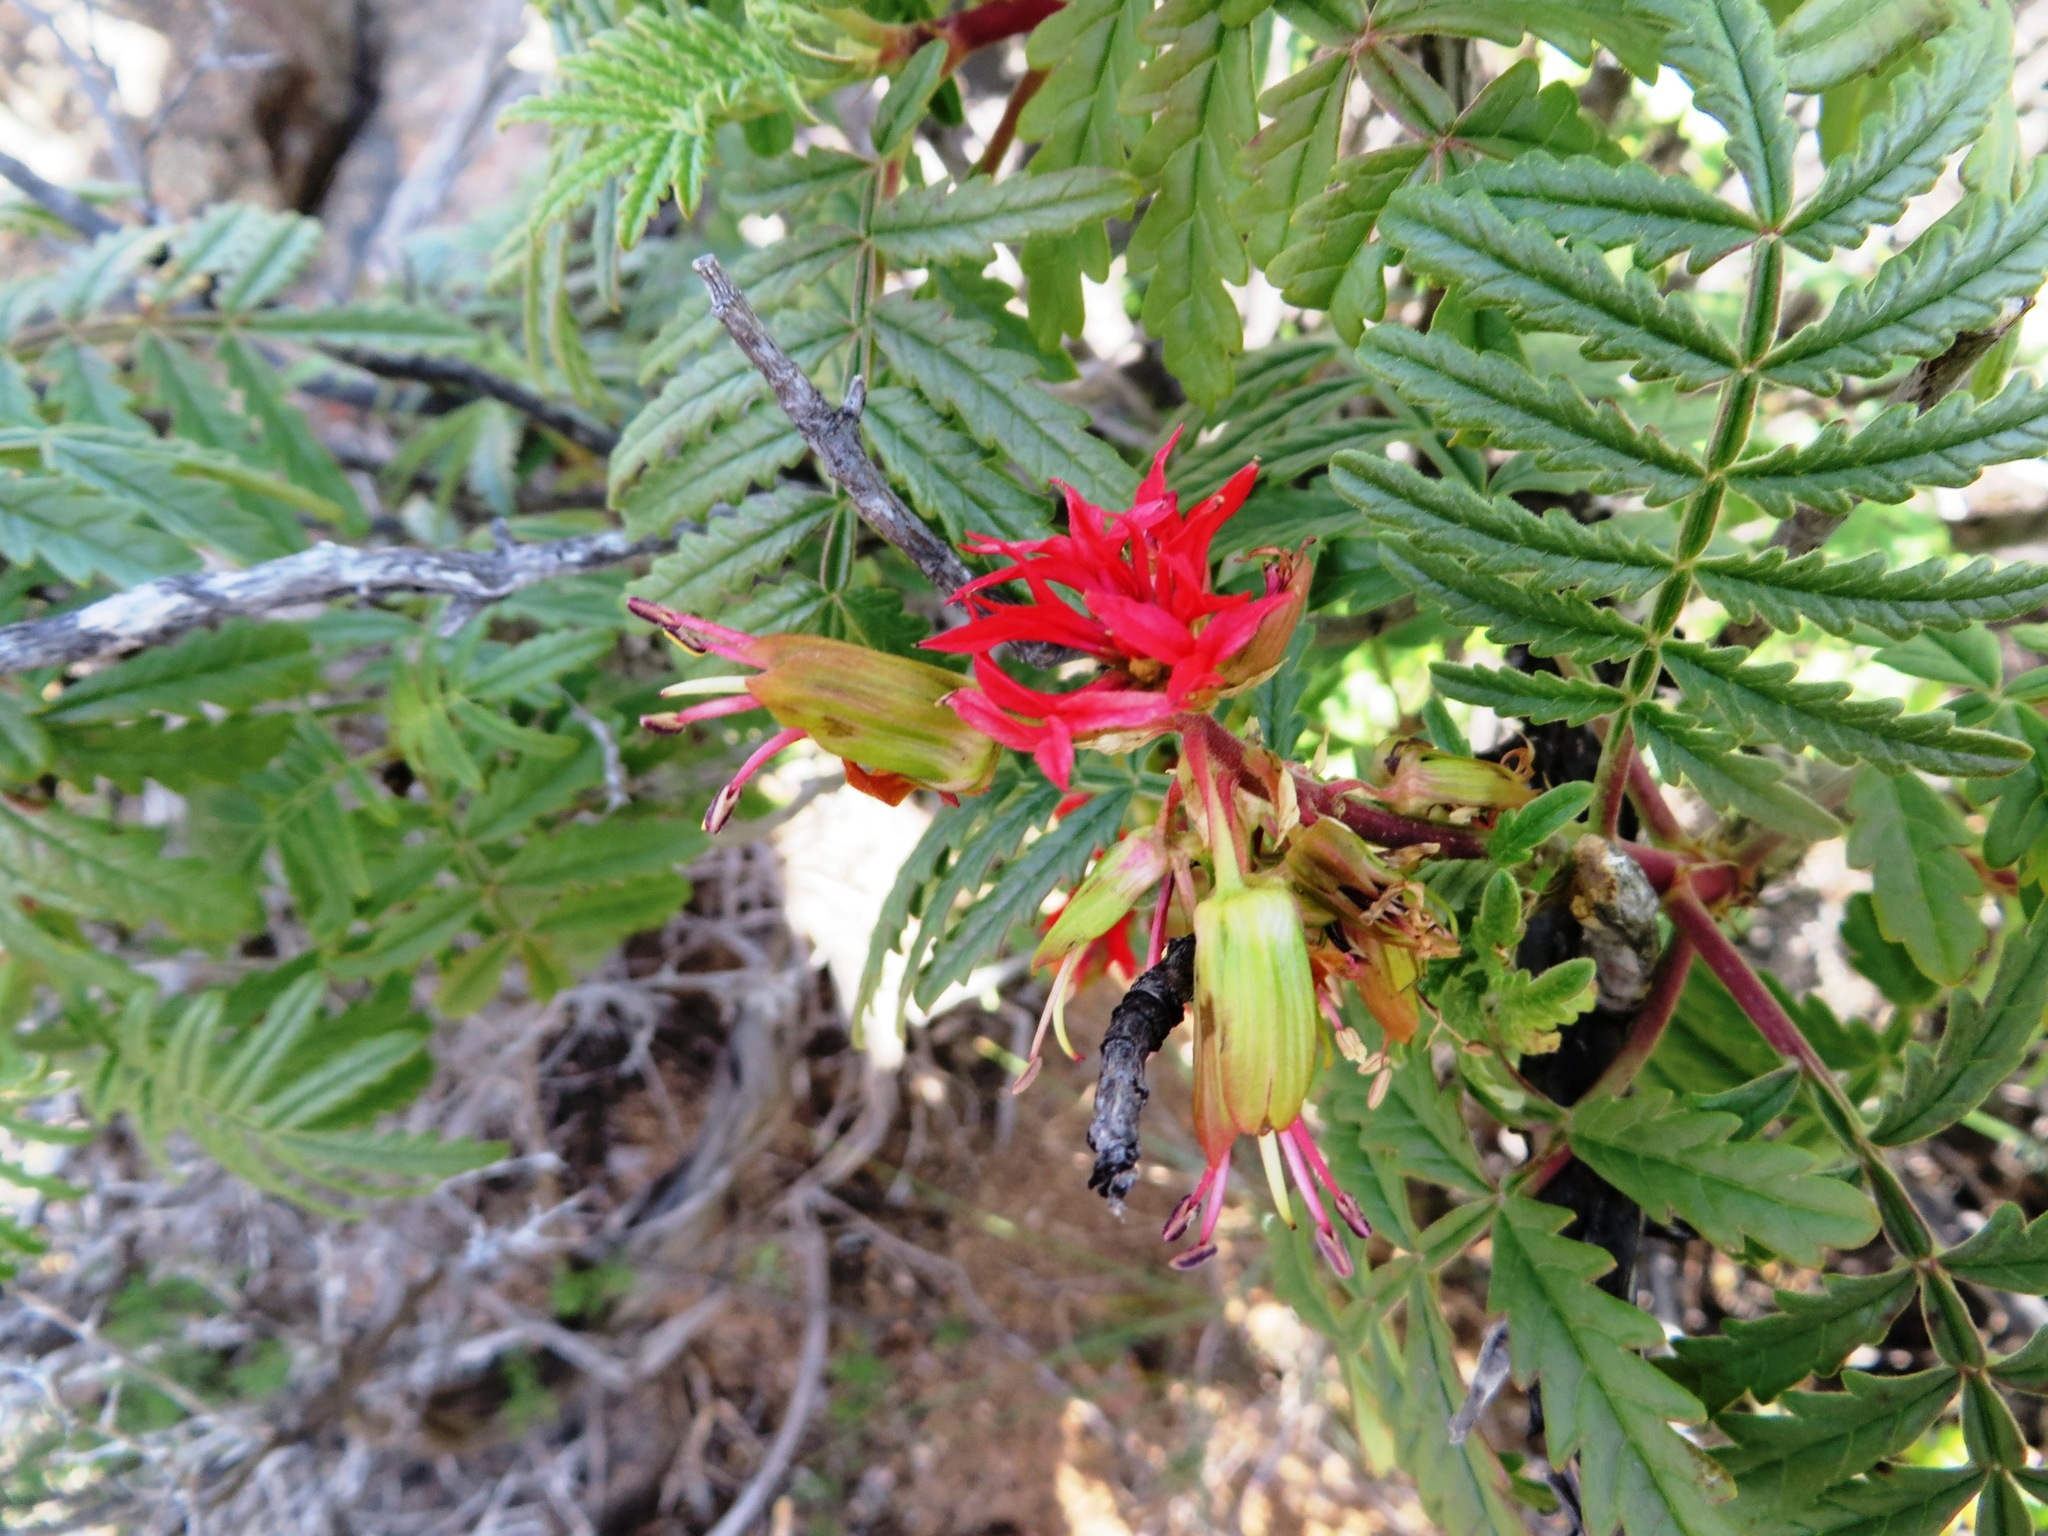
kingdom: Plantae
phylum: Tracheophyta
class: Magnoliopsida
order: Geraniales
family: Melianthaceae
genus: Melianthus
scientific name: Melianthus pectinatus
